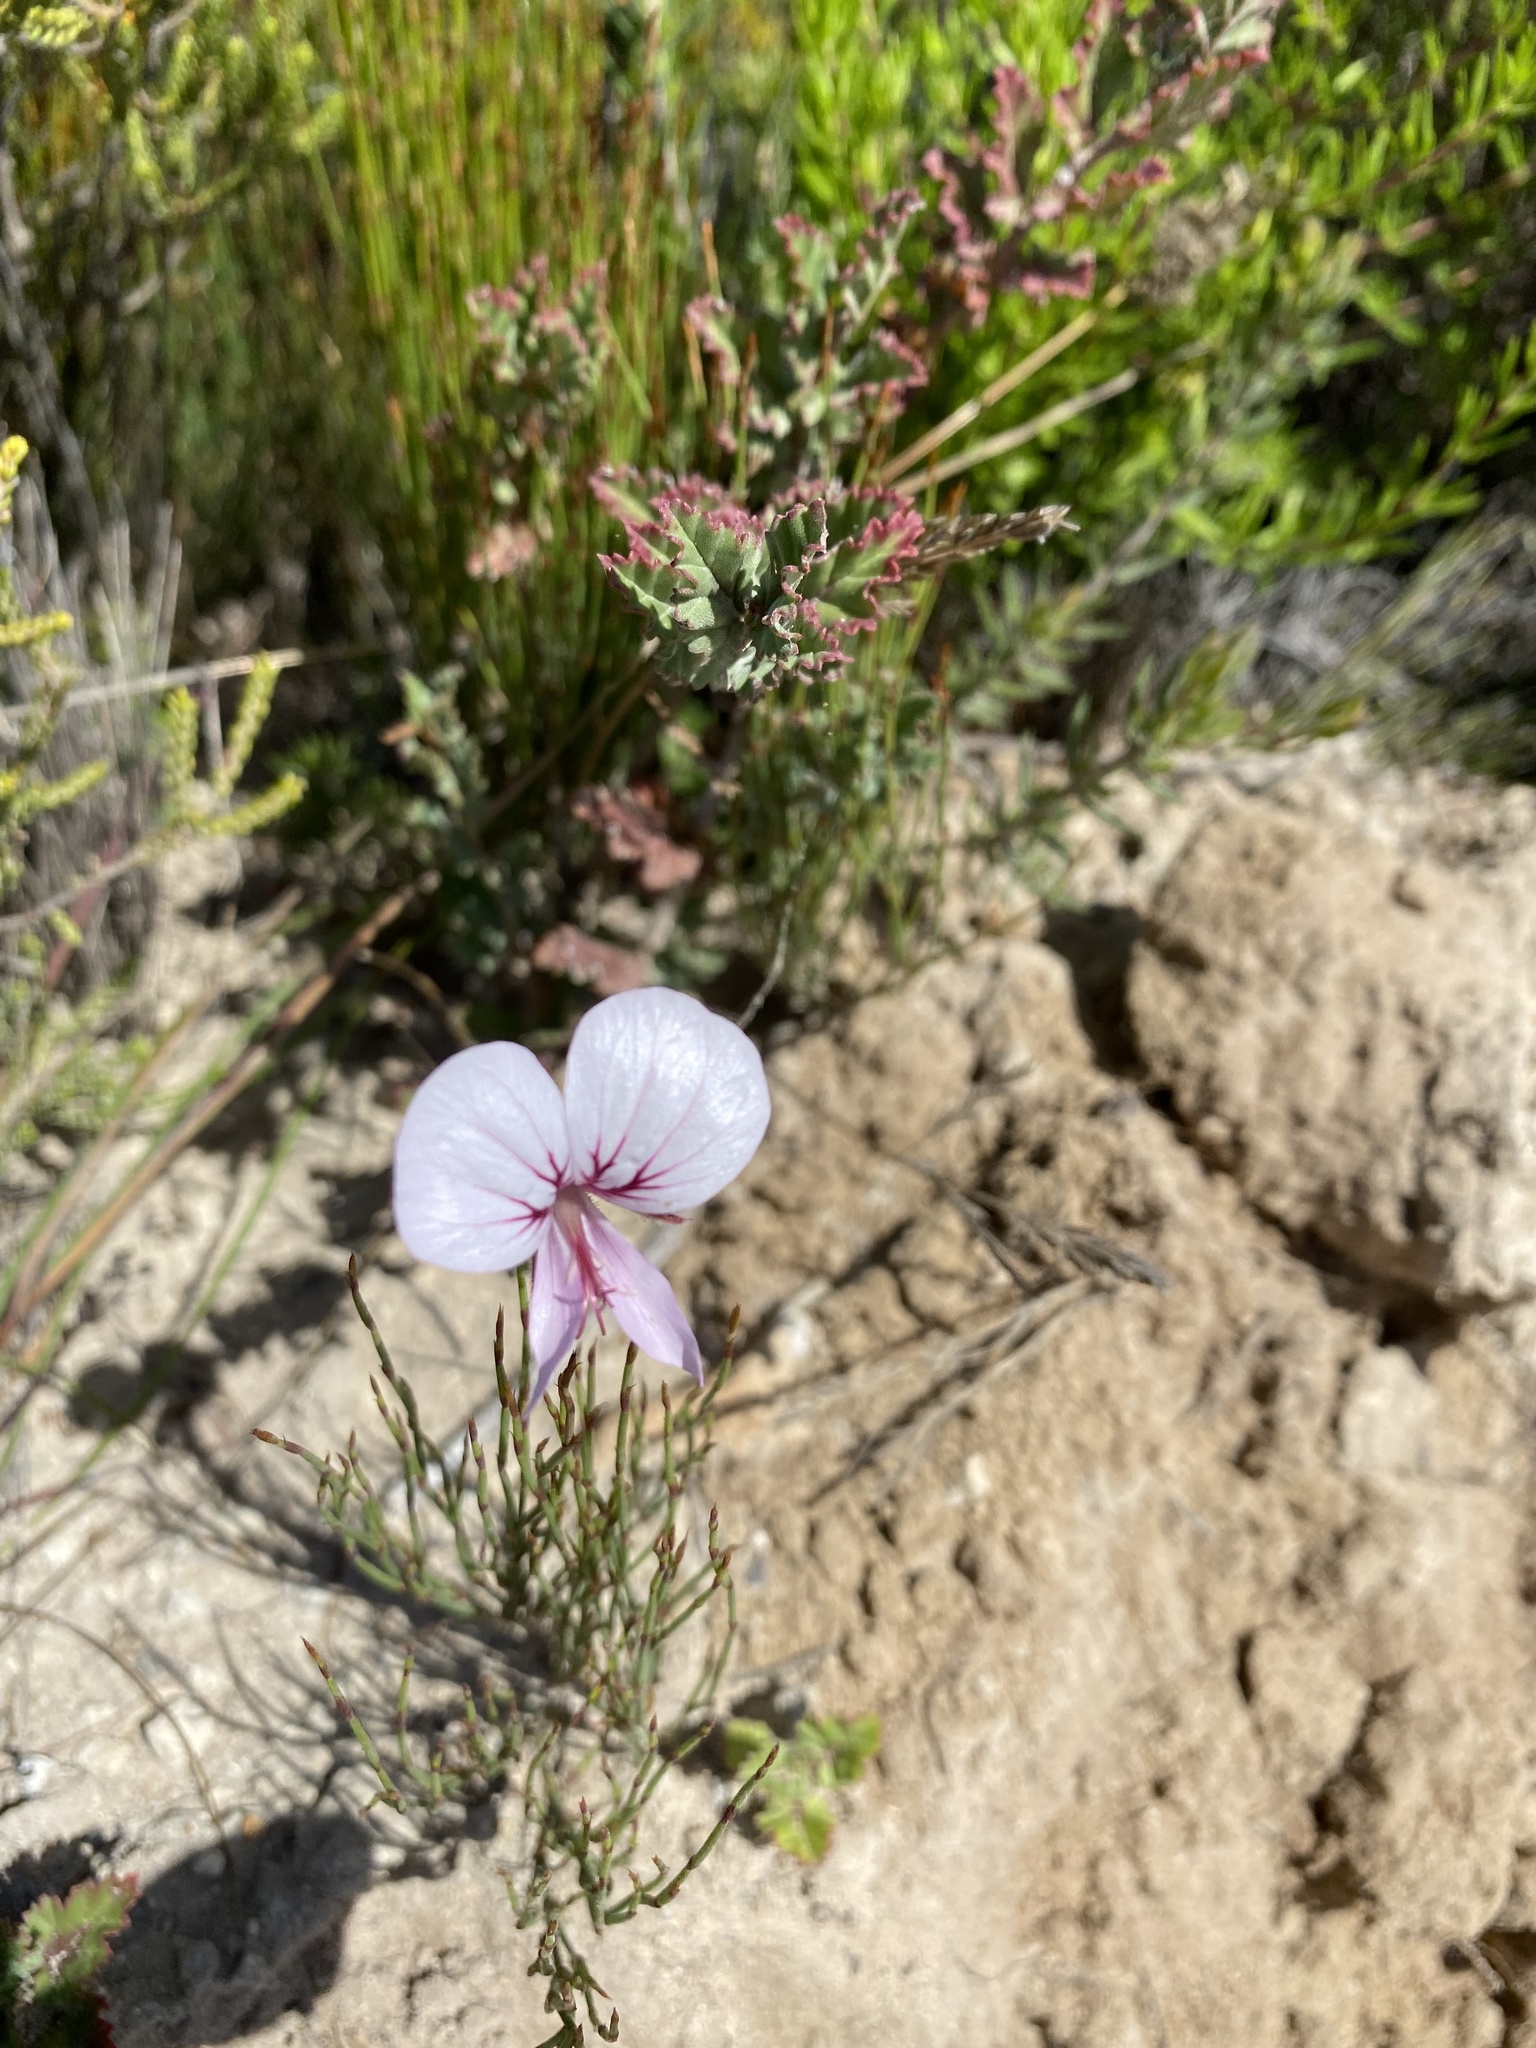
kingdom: Plantae
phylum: Tracheophyta
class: Magnoliopsida
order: Geraniales
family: Geraniaceae
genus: Pelargonium
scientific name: Pelargonium caucalifolium
